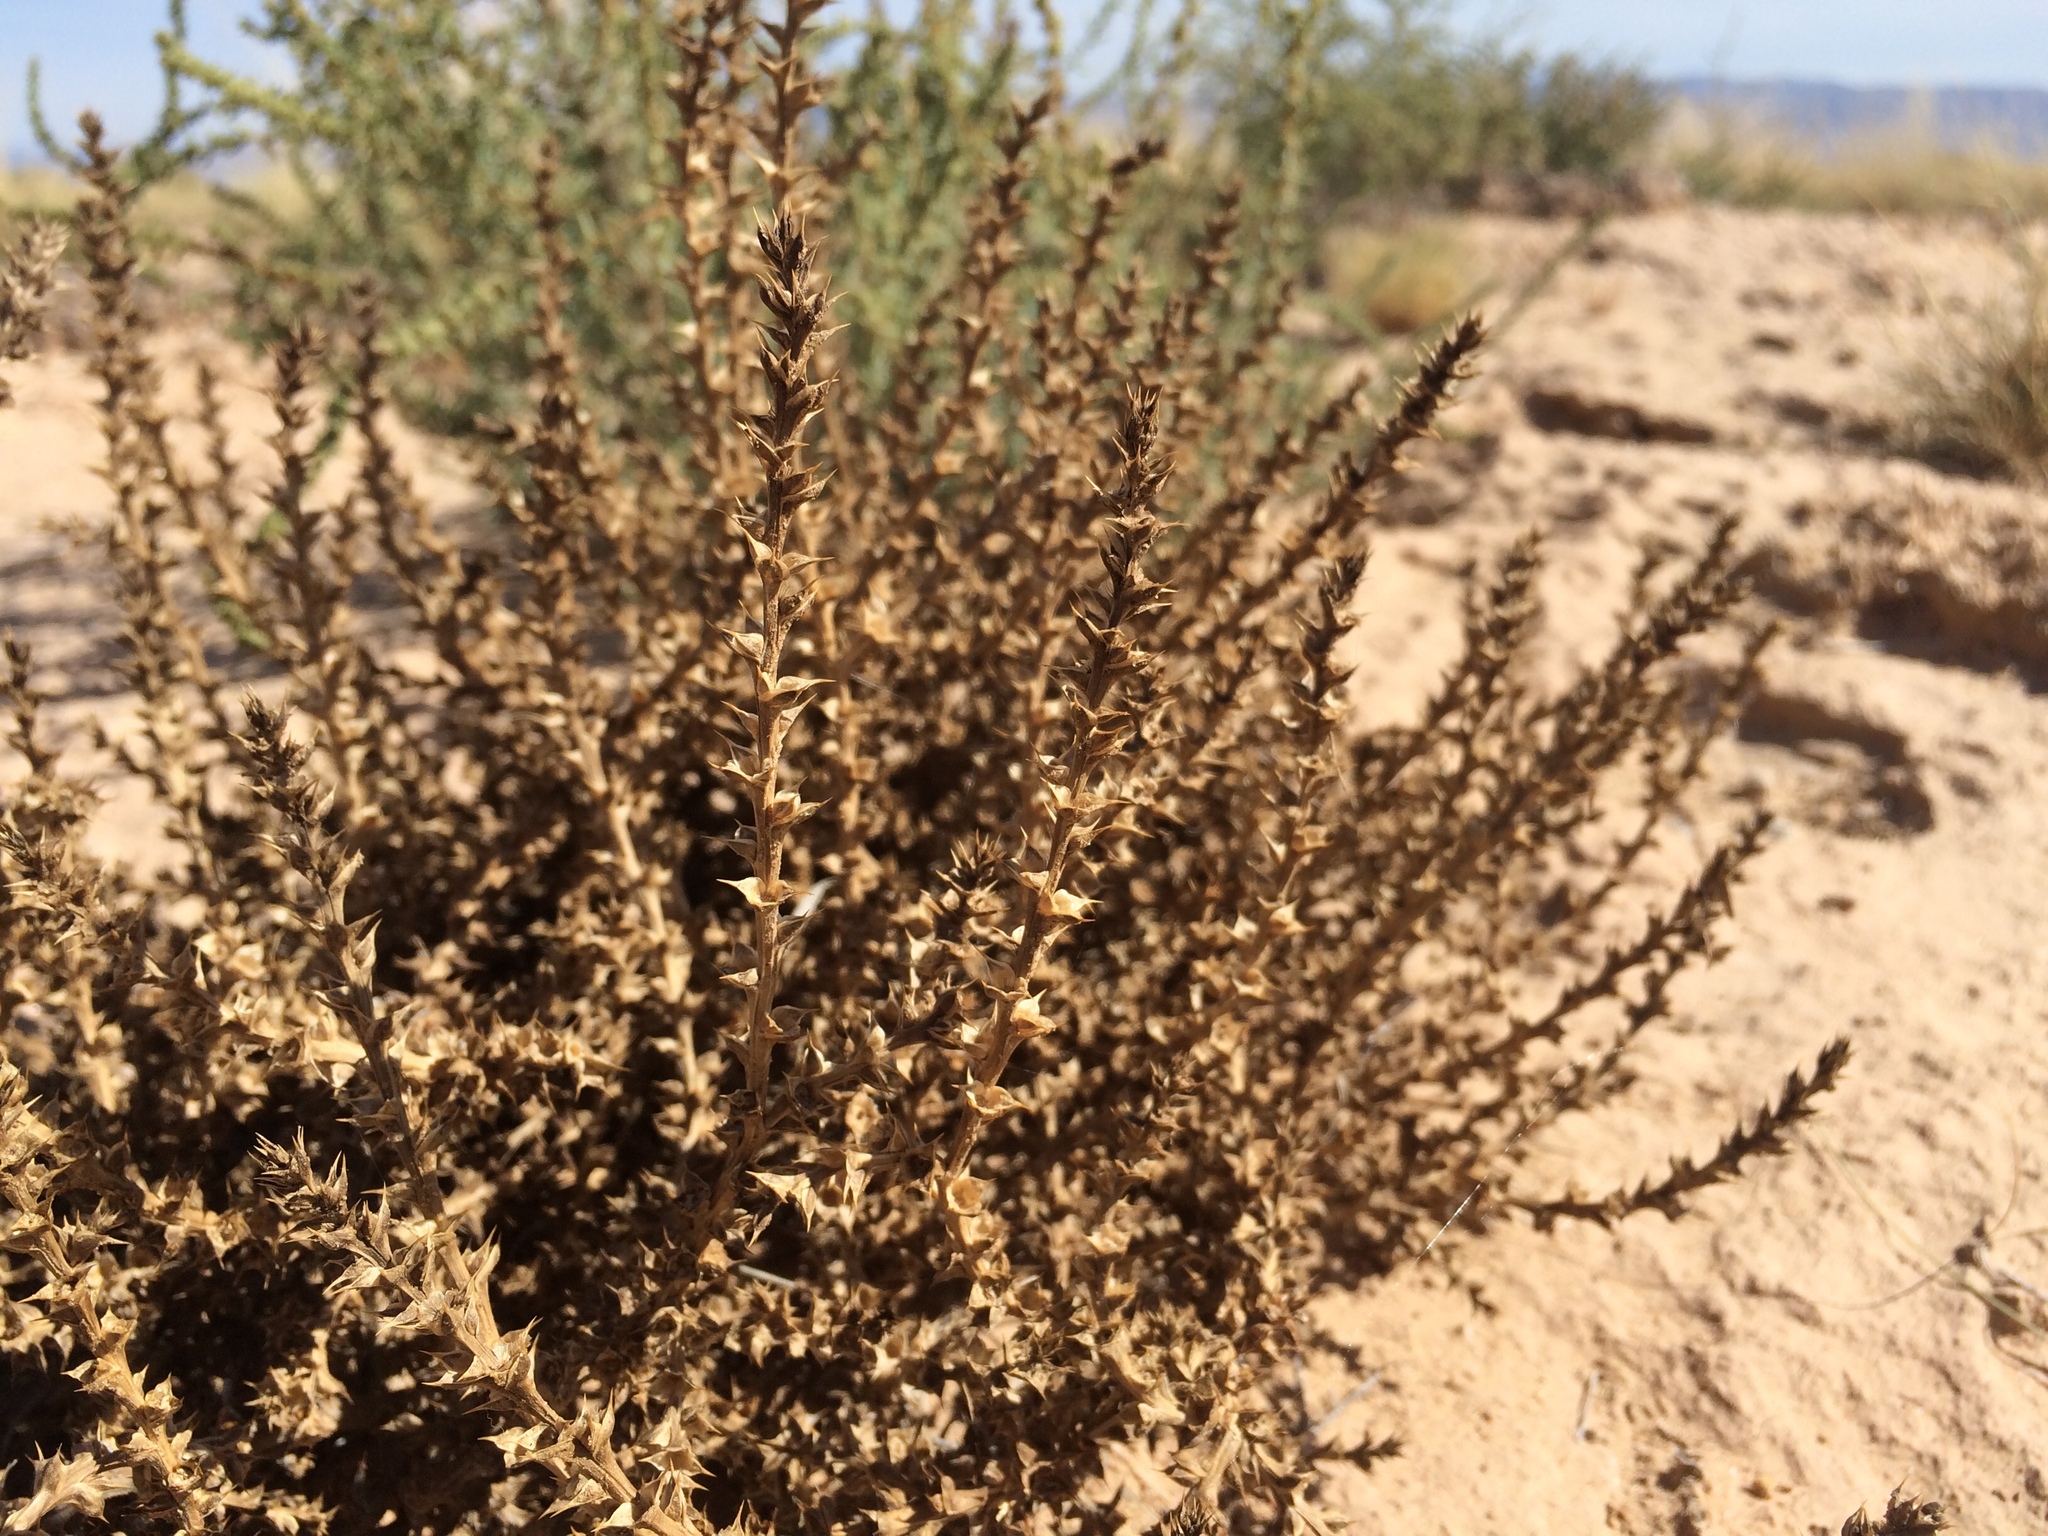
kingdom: Plantae
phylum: Tracheophyta
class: Magnoliopsida
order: Caryophyllales
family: Amaranthaceae
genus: Salsola
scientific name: Salsola tragus
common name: Prickly russian thistle
